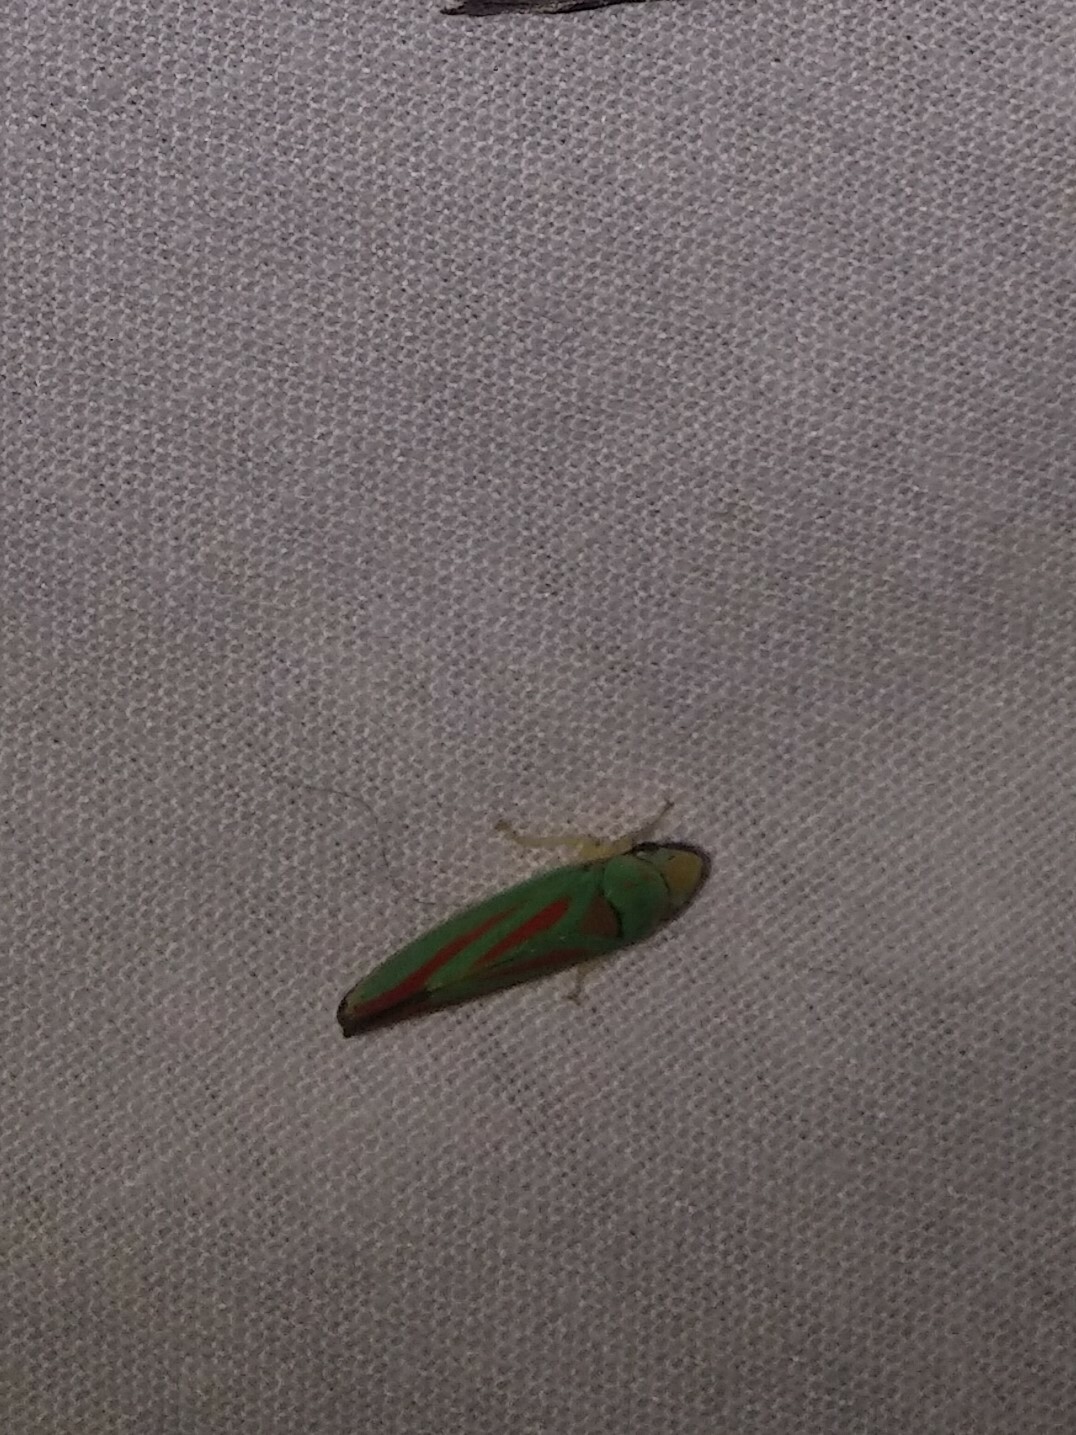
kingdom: Animalia
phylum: Arthropoda
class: Insecta
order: Hemiptera
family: Cicadellidae
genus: Graphocephala
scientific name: Graphocephala fennahi
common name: Rhododendron leafhopper
